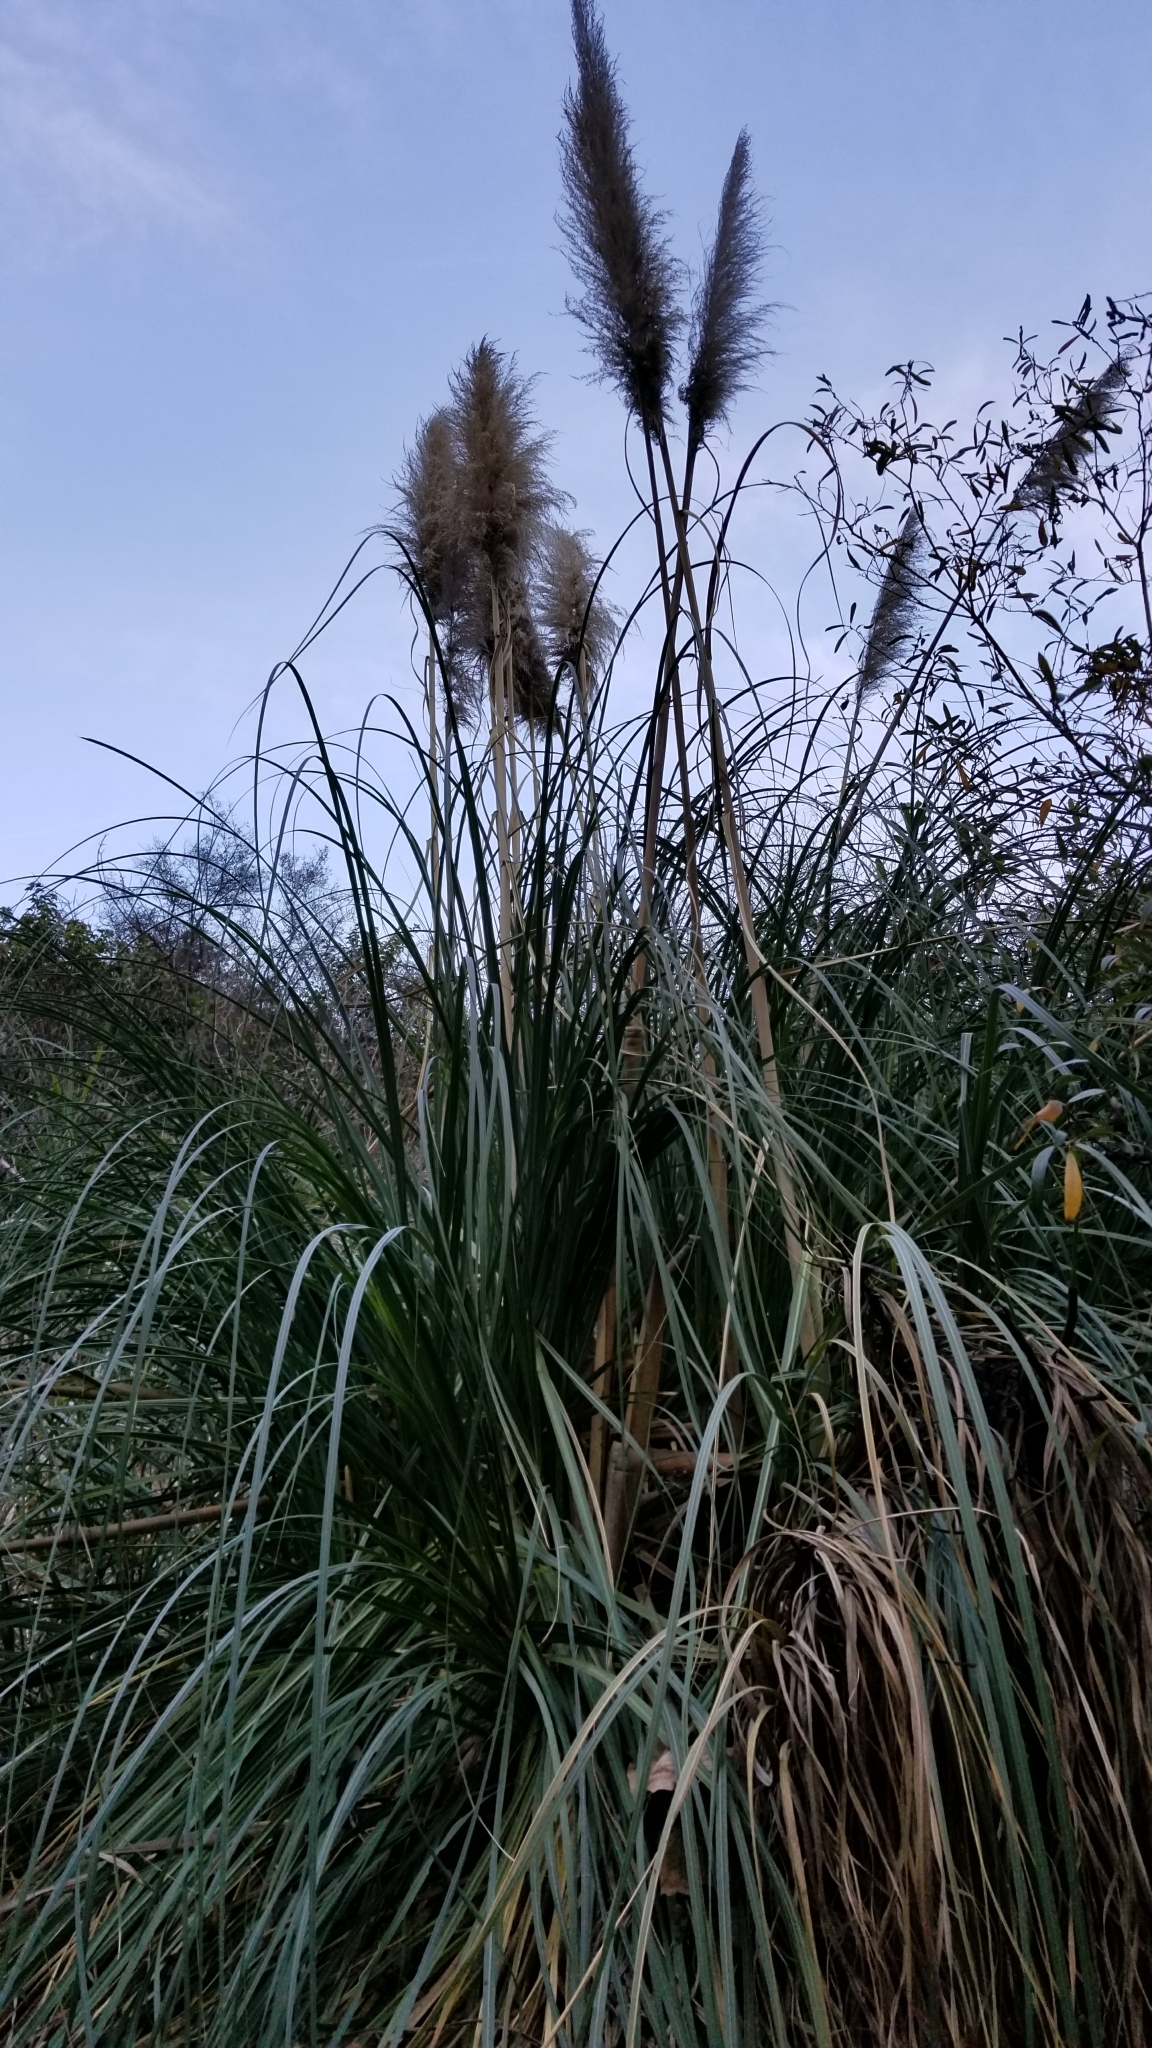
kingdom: Plantae
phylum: Tracheophyta
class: Liliopsida
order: Poales
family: Poaceae
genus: Cortaderia
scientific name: Cortaderia selloana
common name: Uruguayan pampas grass
